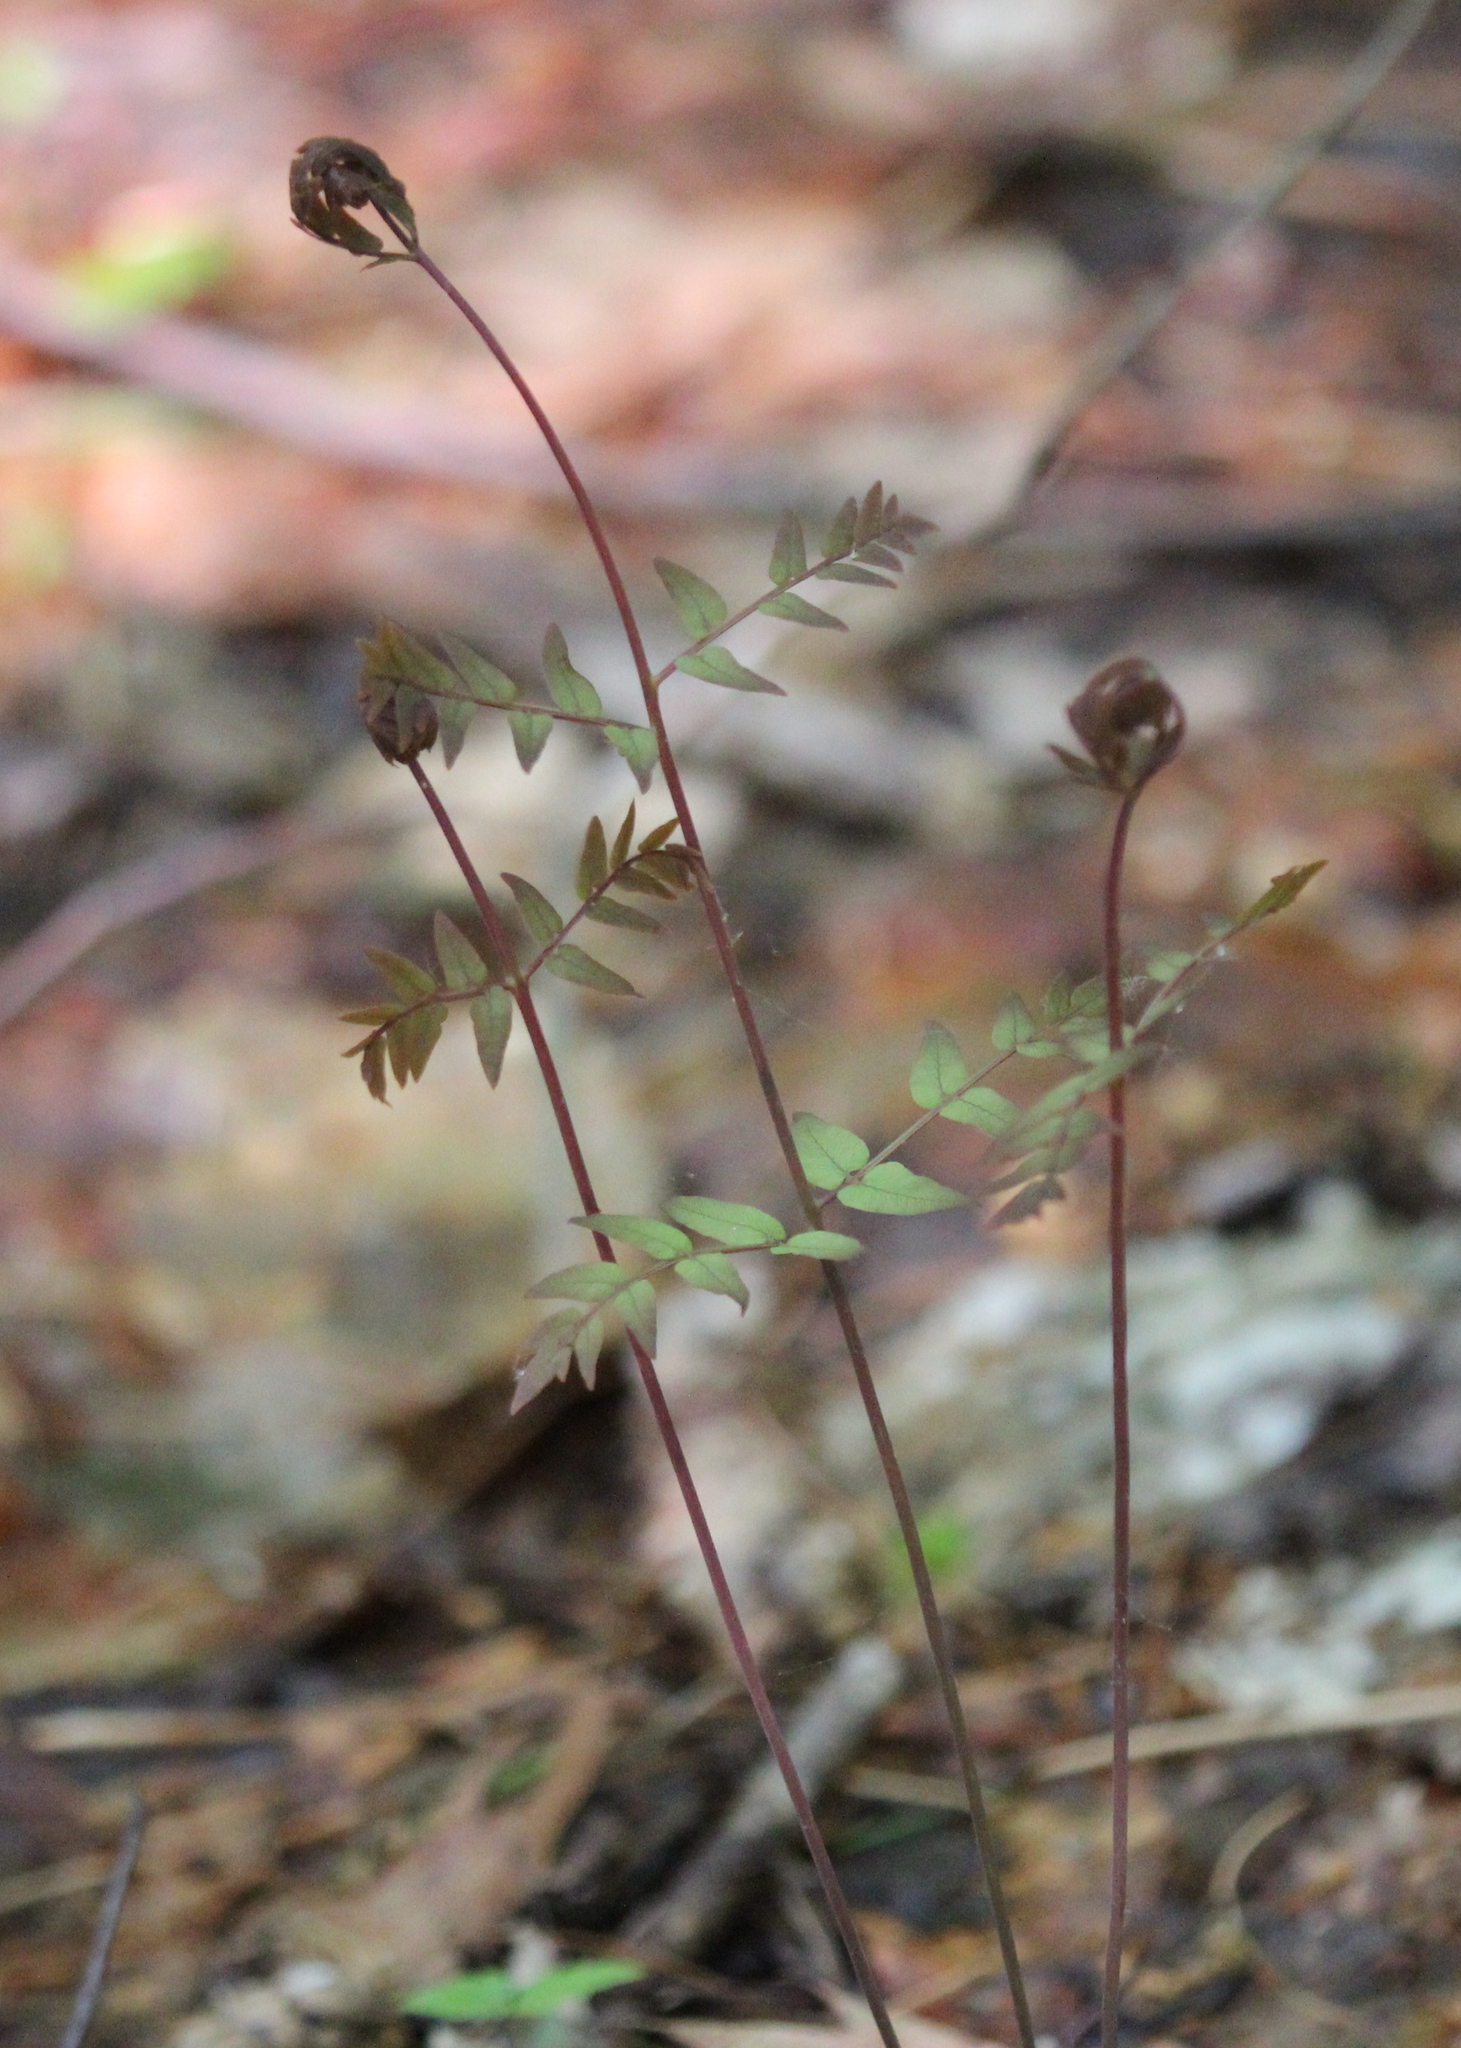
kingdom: Plantae
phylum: Tracheophyta
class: Polypodiopsida
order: Osmundales
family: Osmundaceae
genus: Osmunda
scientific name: Osmunda spectabilis
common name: American royal fern
